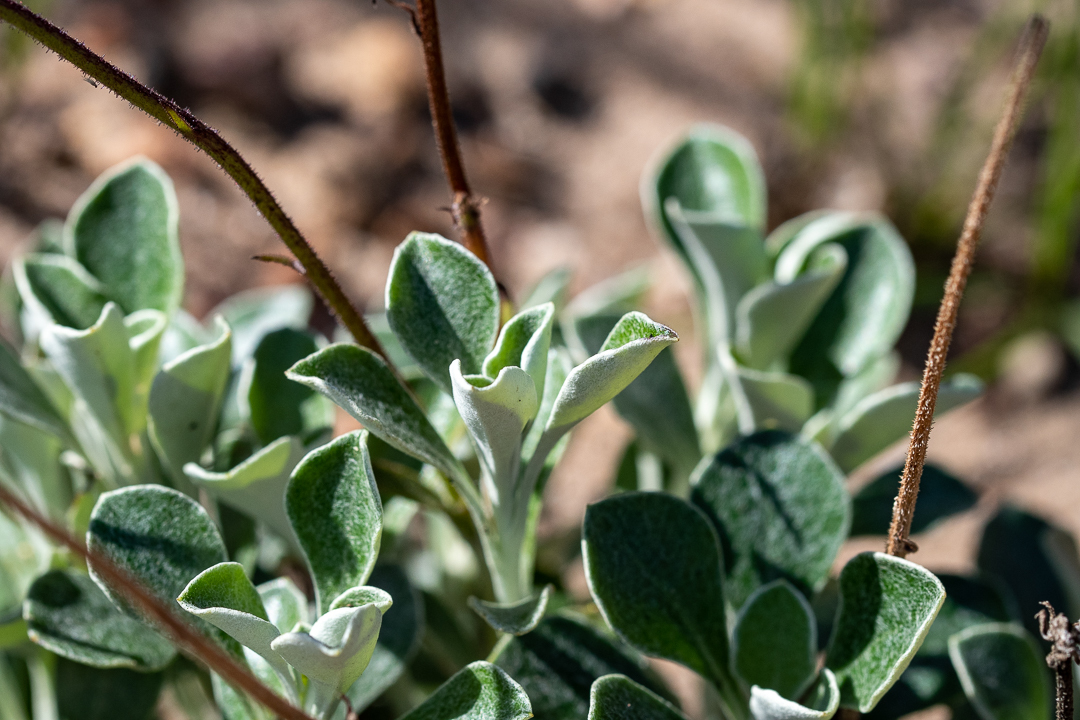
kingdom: Plantae
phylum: Tracheophyta
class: Magnoliopsida
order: Asterales
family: Asteraceae
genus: Osteospermum
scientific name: Osteospermum tomentosum
